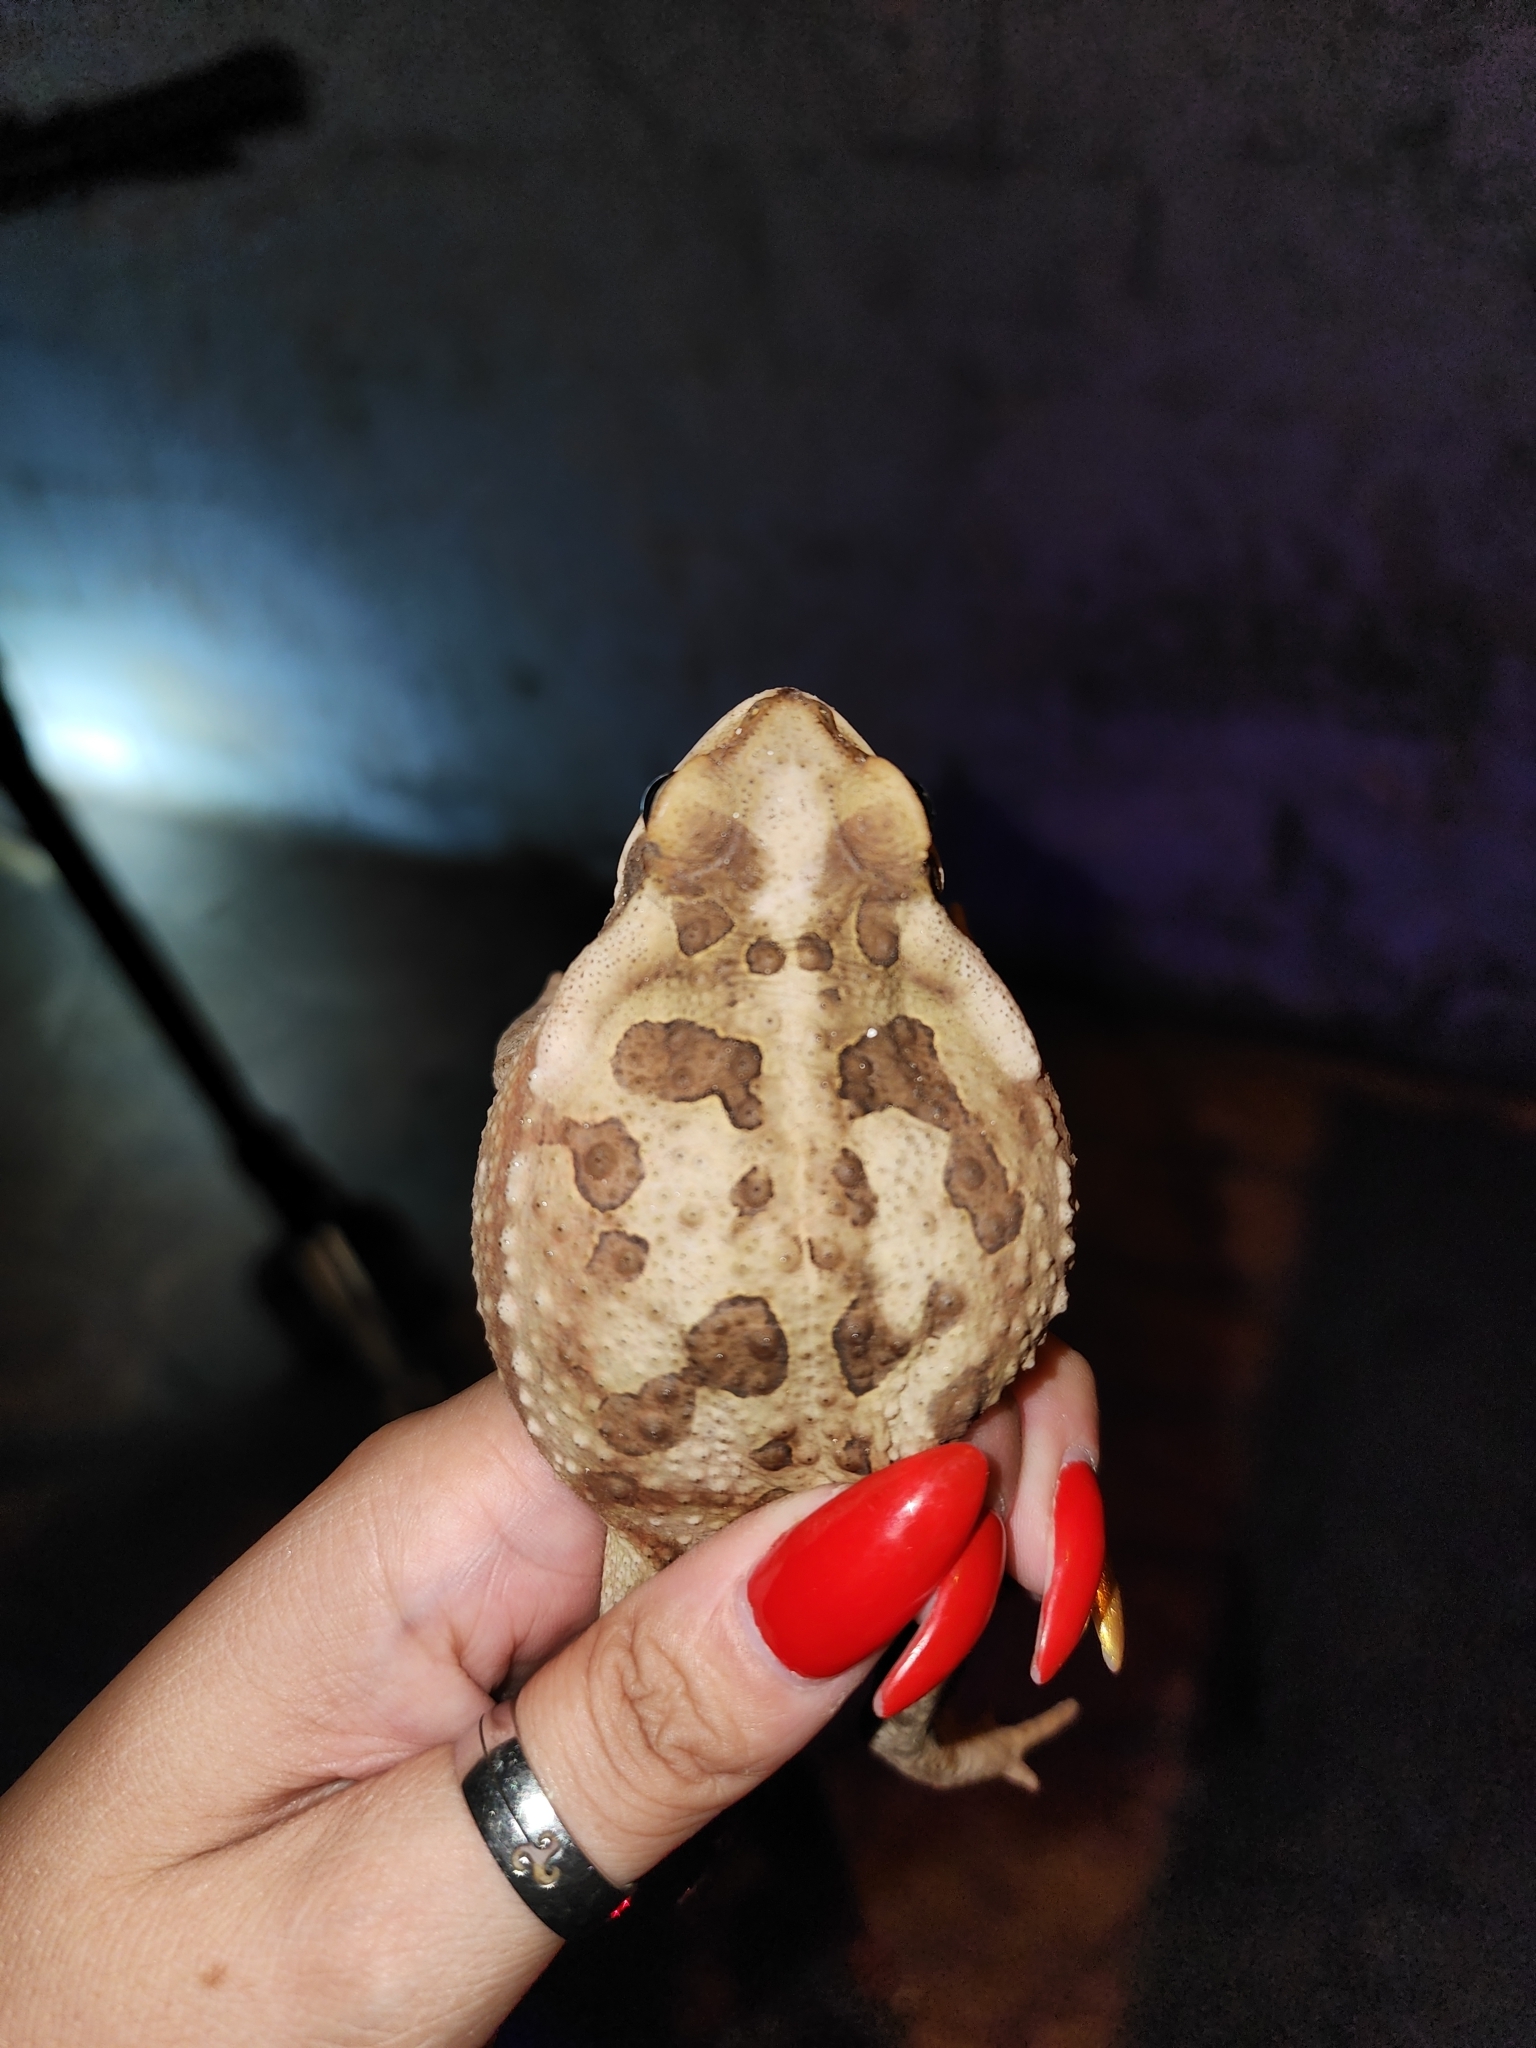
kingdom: Animalia
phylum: Chordata
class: Amphibia
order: Anura
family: Bufonidae
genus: Rhinella
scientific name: Rhinella arenarum
